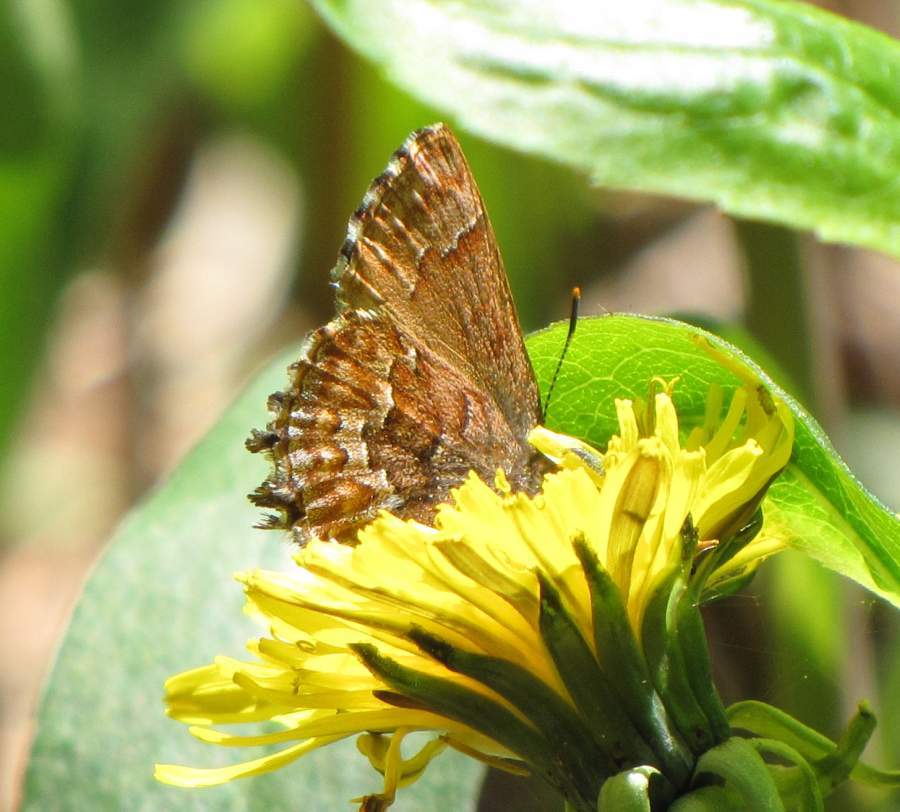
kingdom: Animalia
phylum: Arthropoda
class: Insecta
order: Lepidoptera
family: Lycaenidae
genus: Incisalia
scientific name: Incisalia niphon
